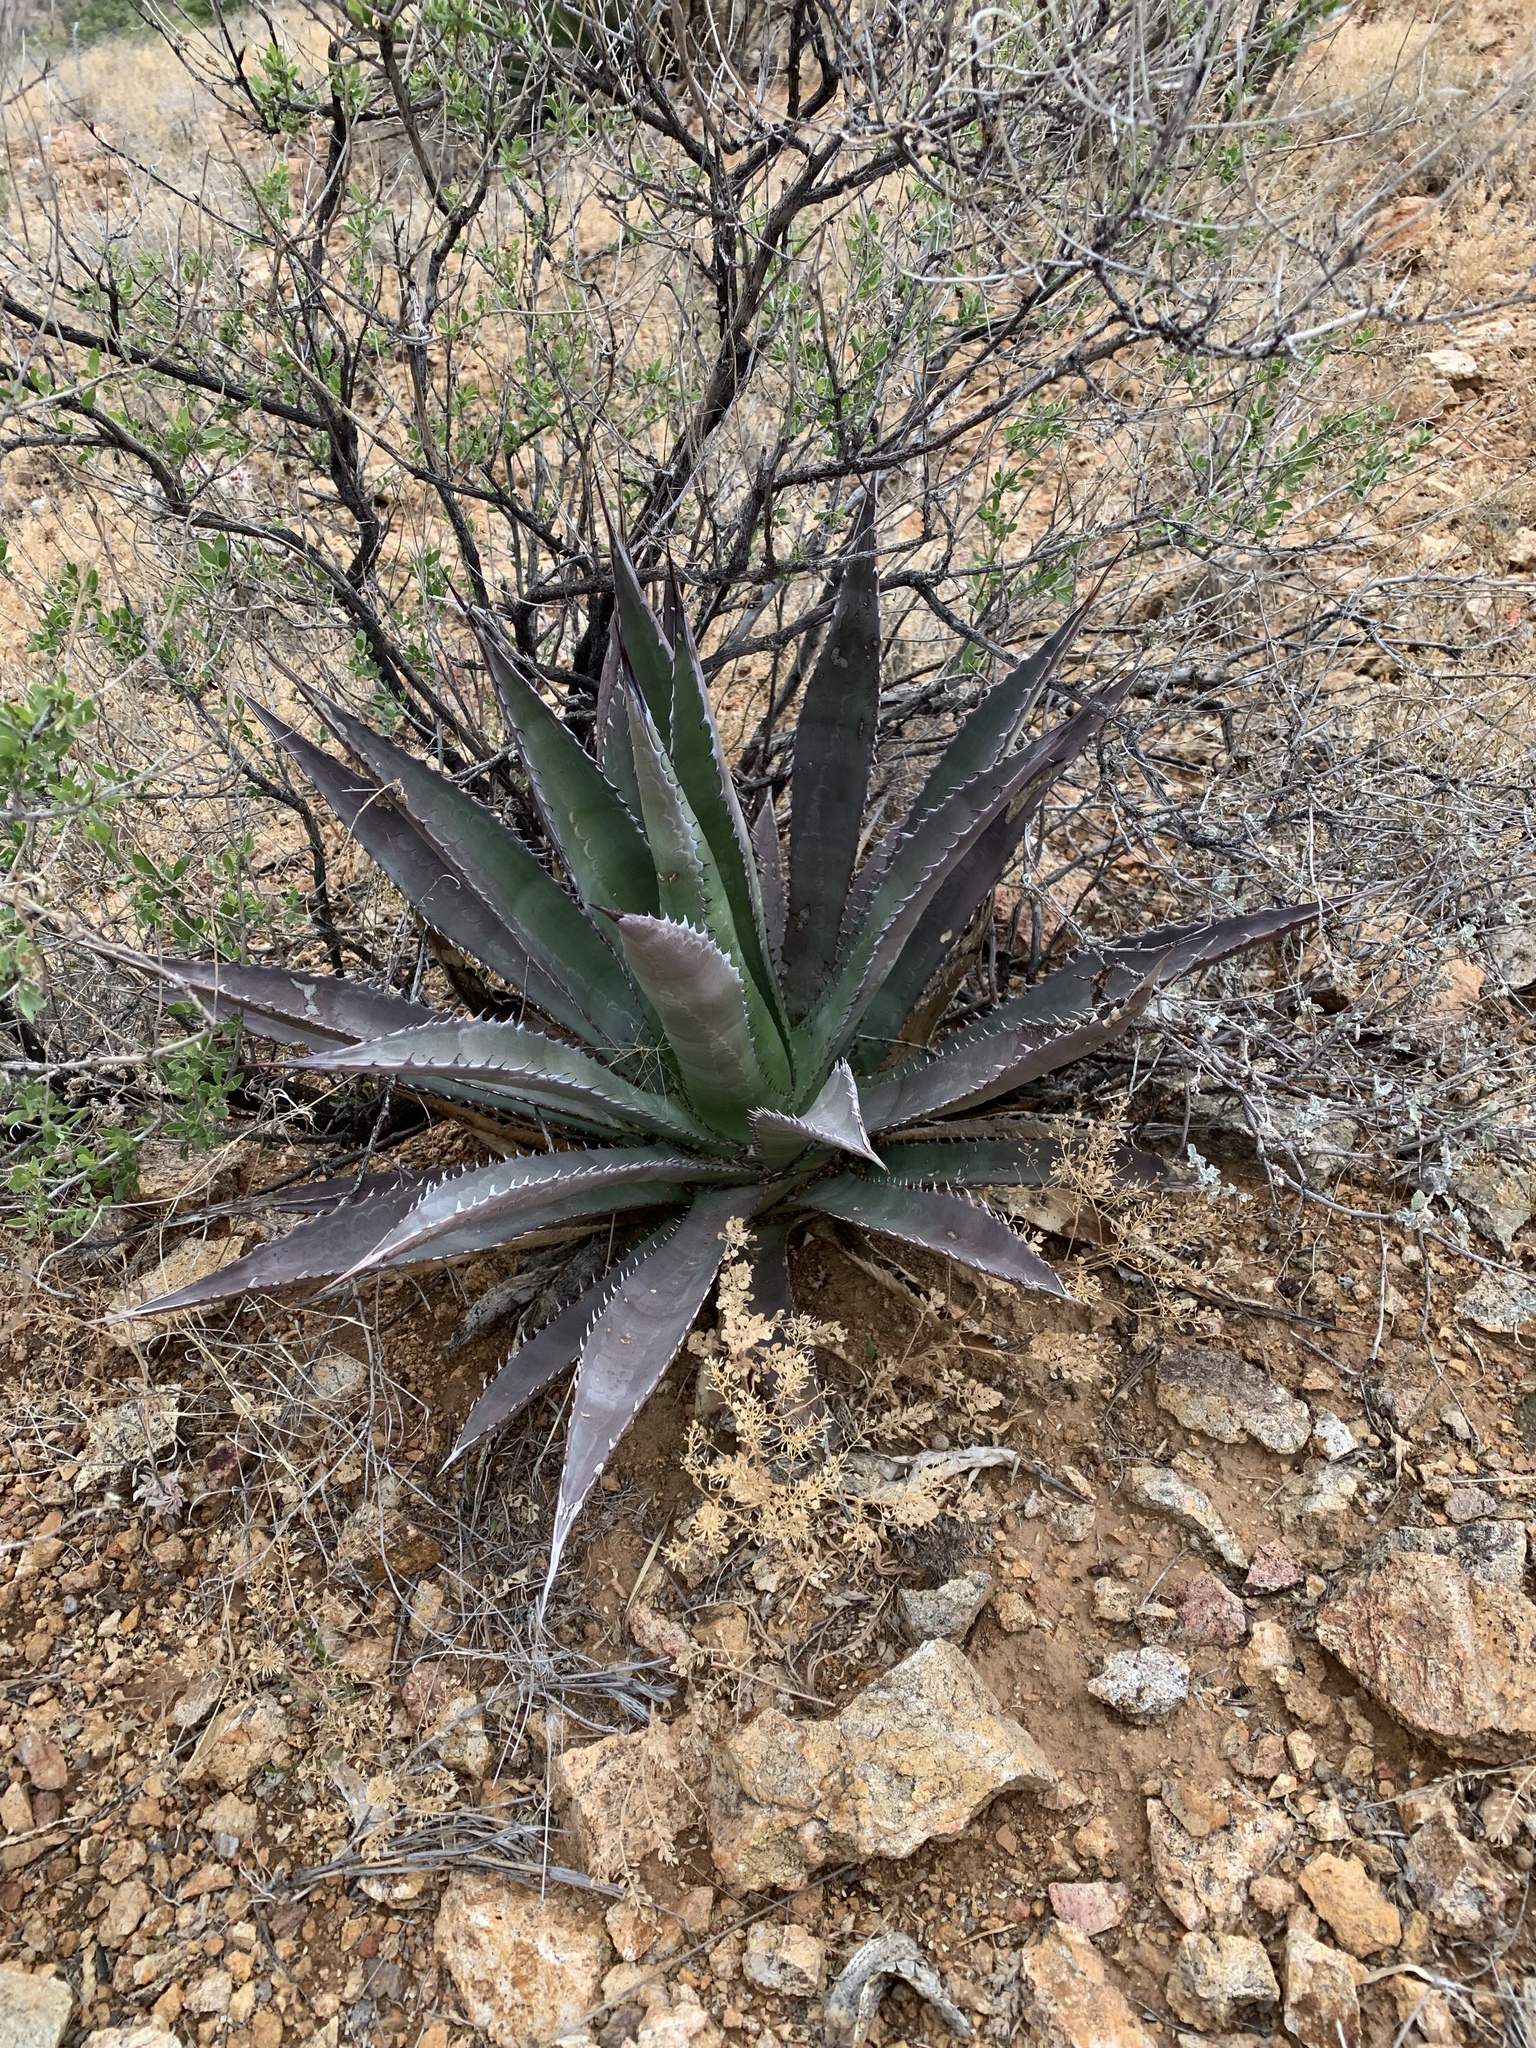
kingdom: Plantae
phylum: Tracheophyta
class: Liliopsida
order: Asparagales
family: Asparagaceae
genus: Agave
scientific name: Agave palmeri
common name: Palmer agave
